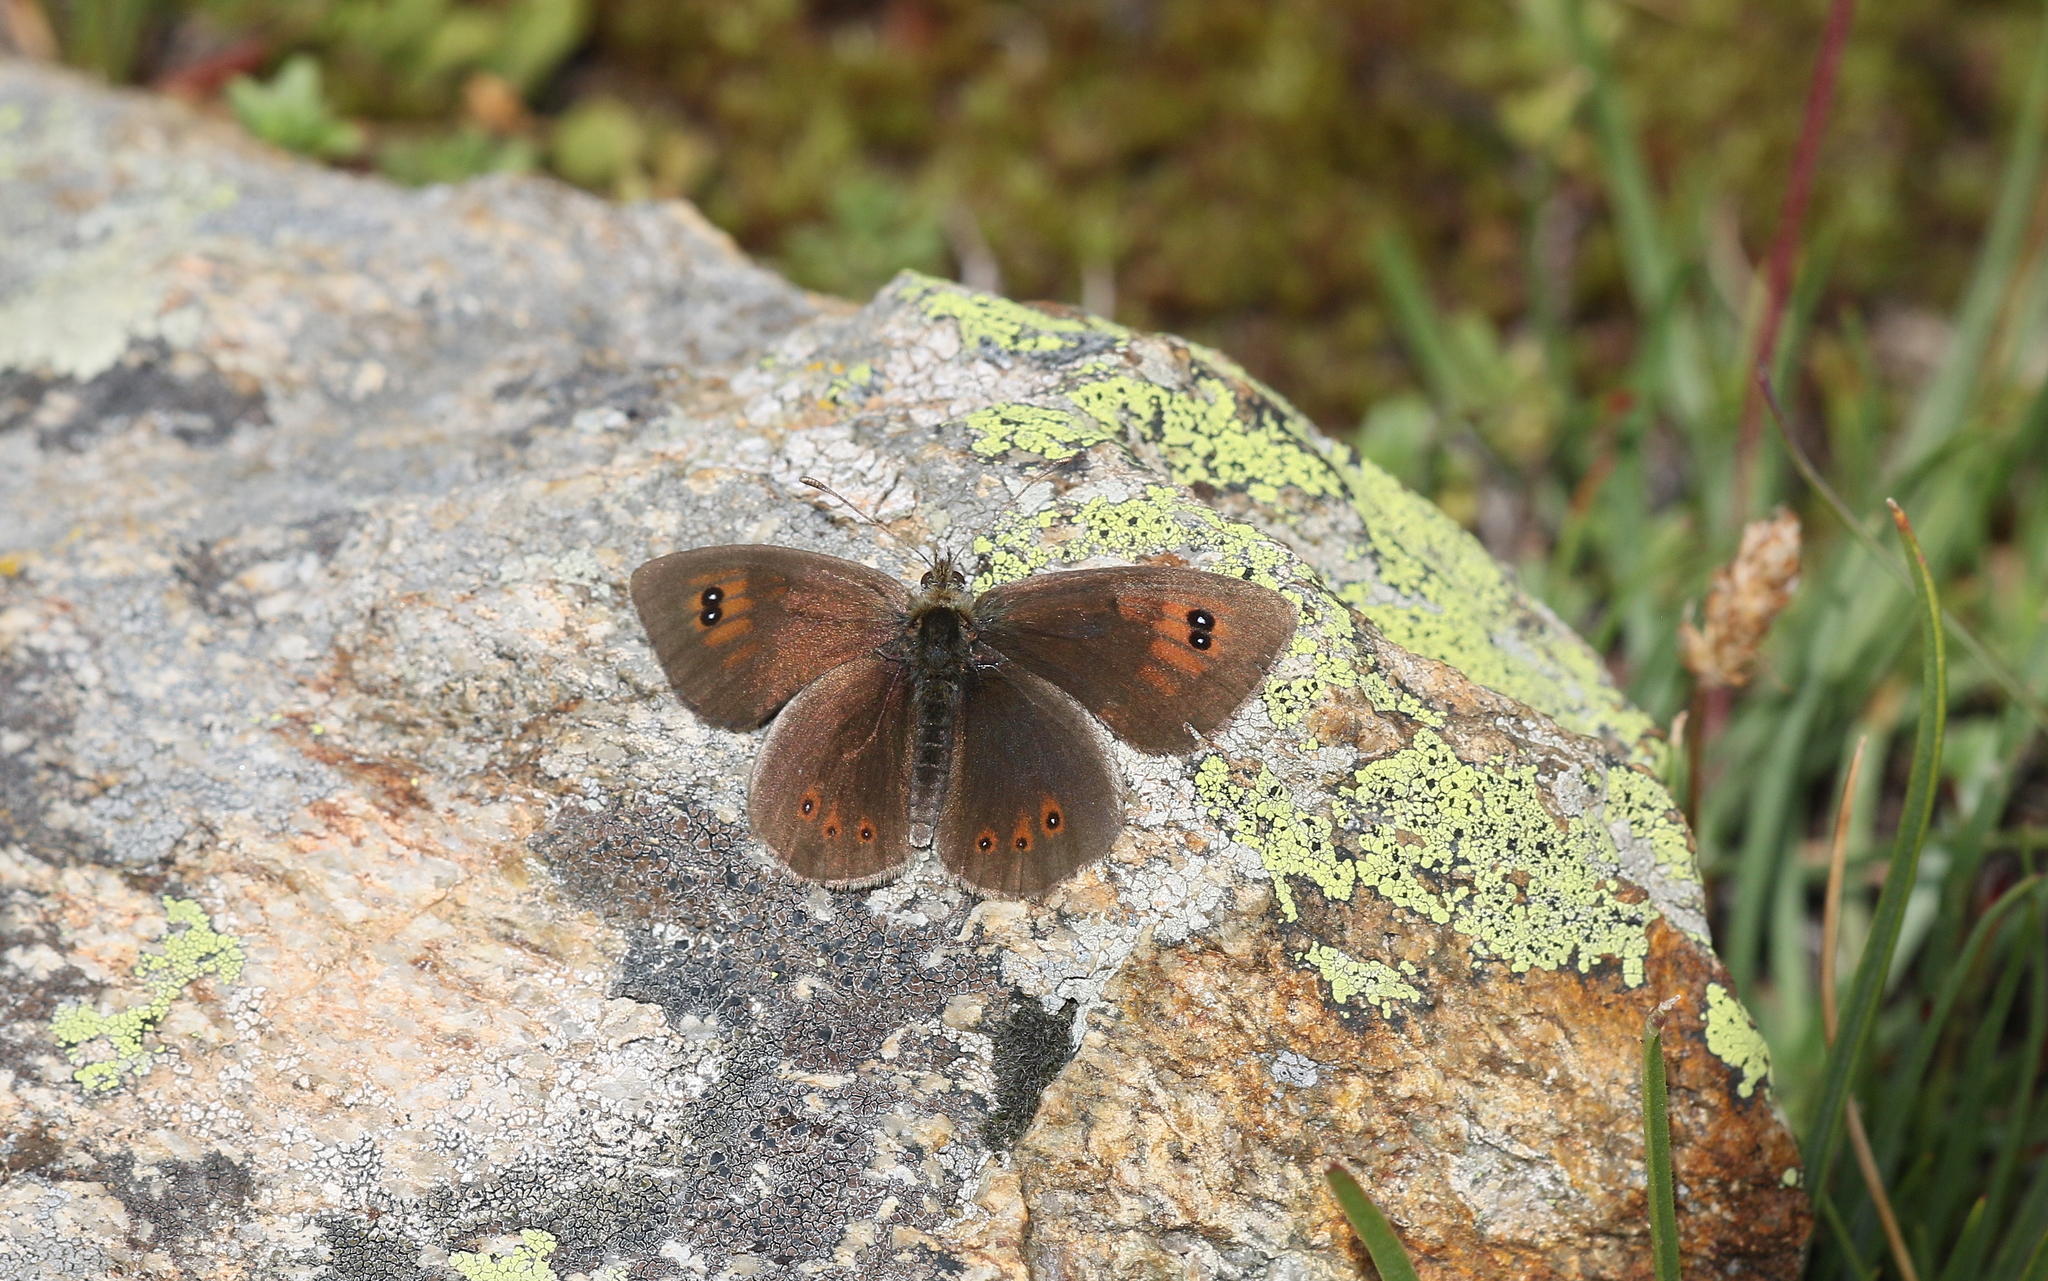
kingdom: Animalia
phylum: Arthropoda
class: Insecta
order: Lepidoptera
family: Nymphalidae
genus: Erebia
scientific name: Erebia cassioides
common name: Common brassy ringlet
